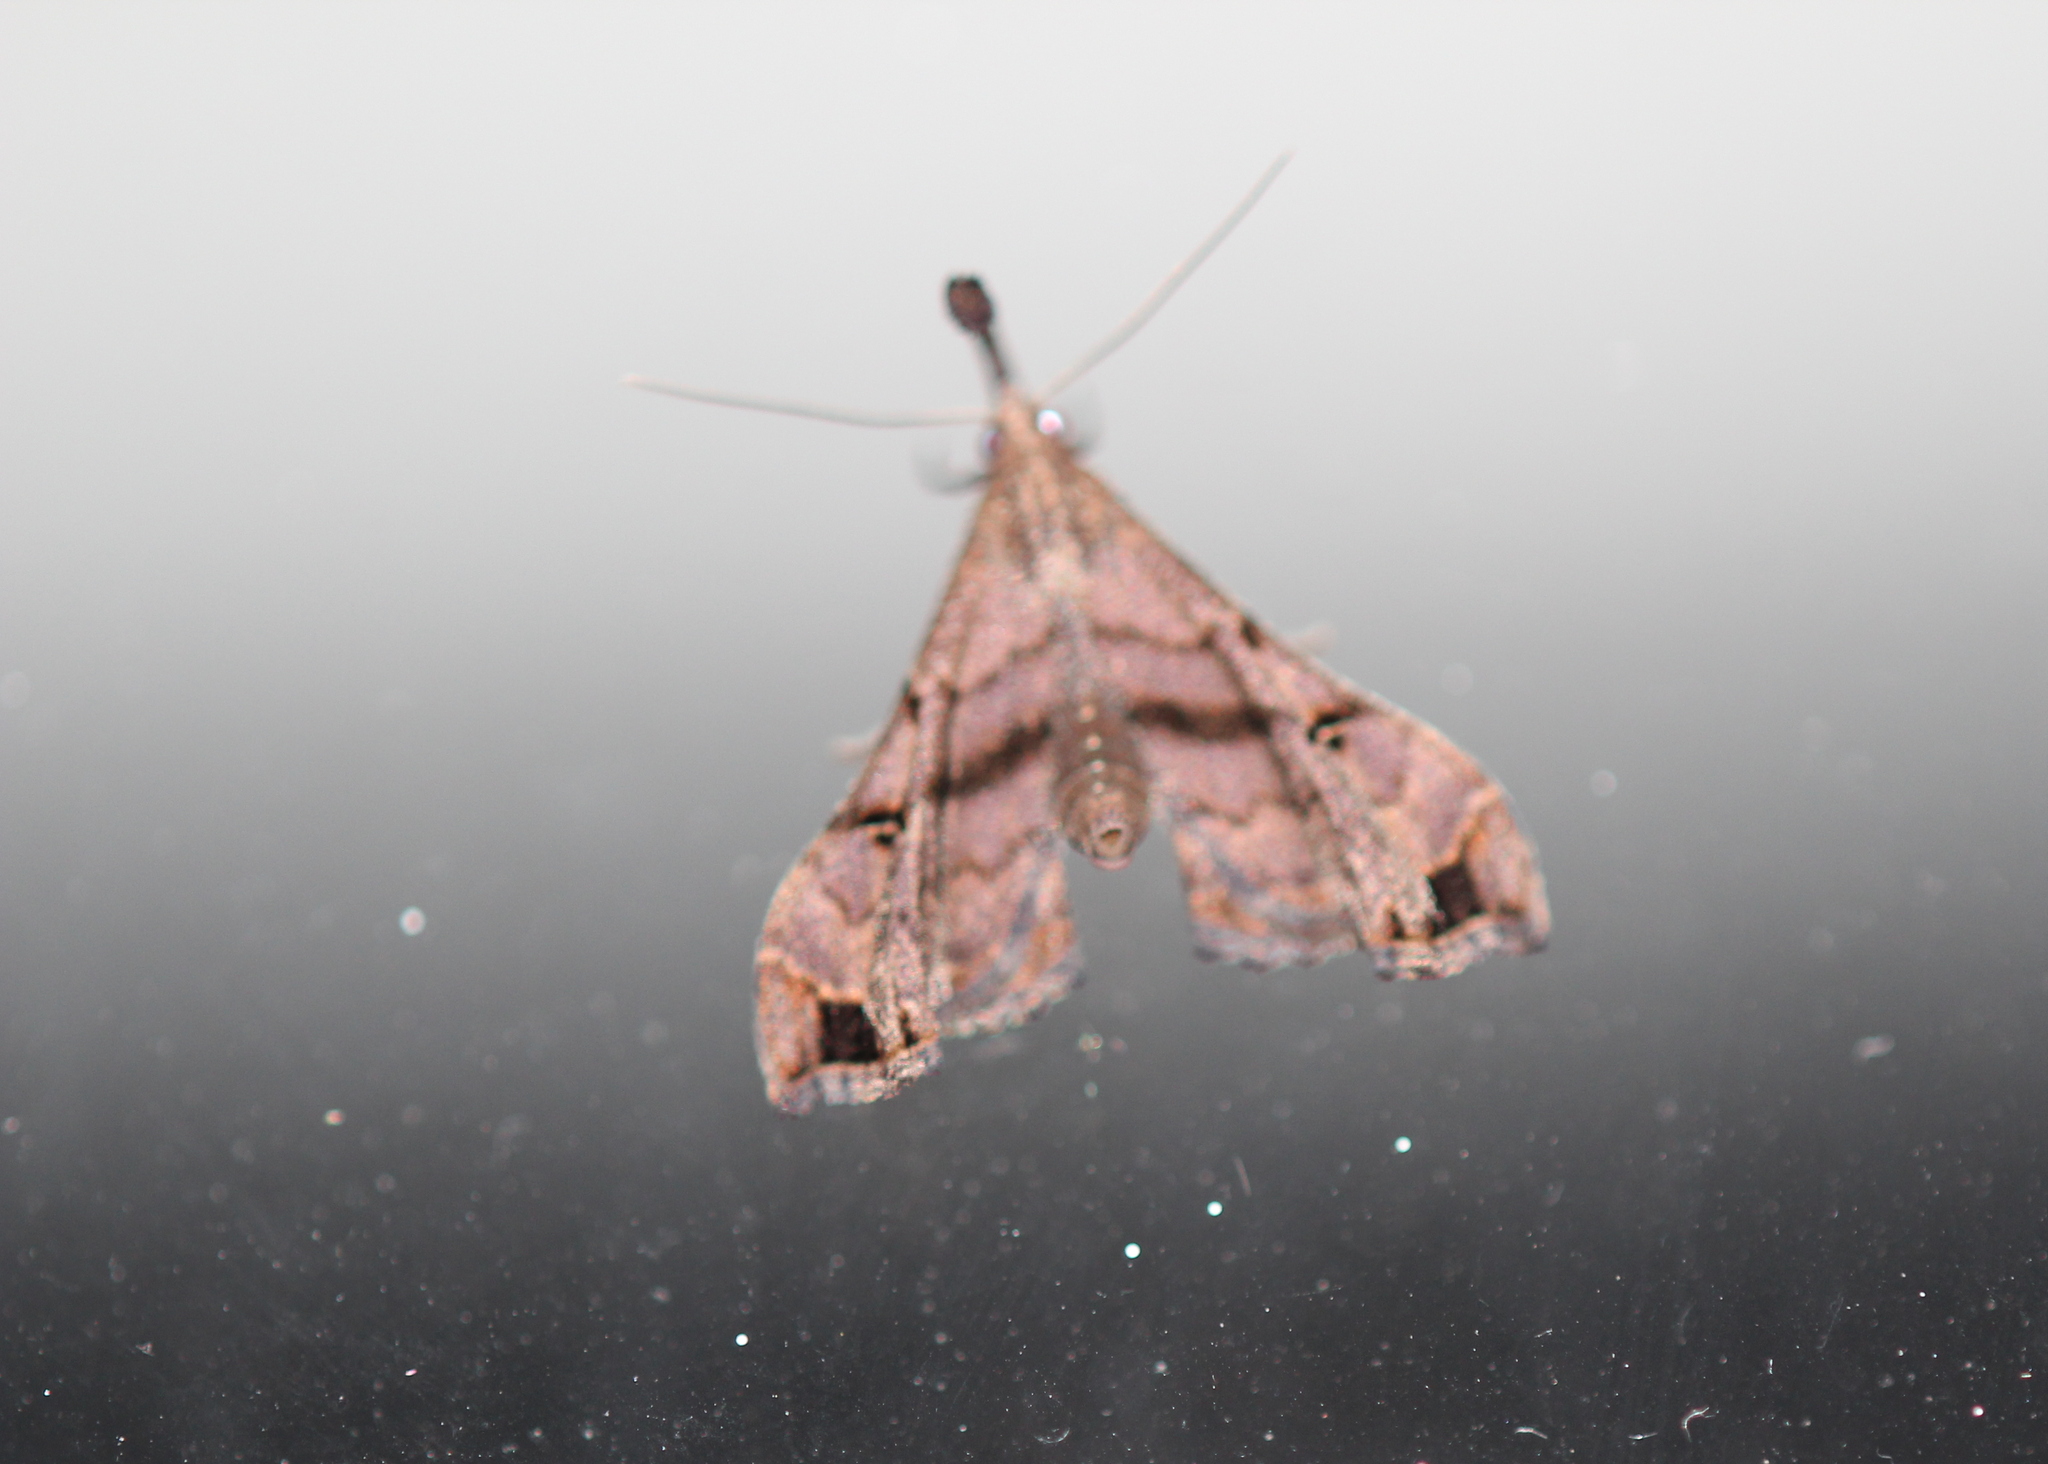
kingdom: Animalia
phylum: Arthropoda
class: Insecta
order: Lepidoptera
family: Erebidae
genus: Palthis
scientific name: Palthis asopialis
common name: Faint-spotted palthis moth
